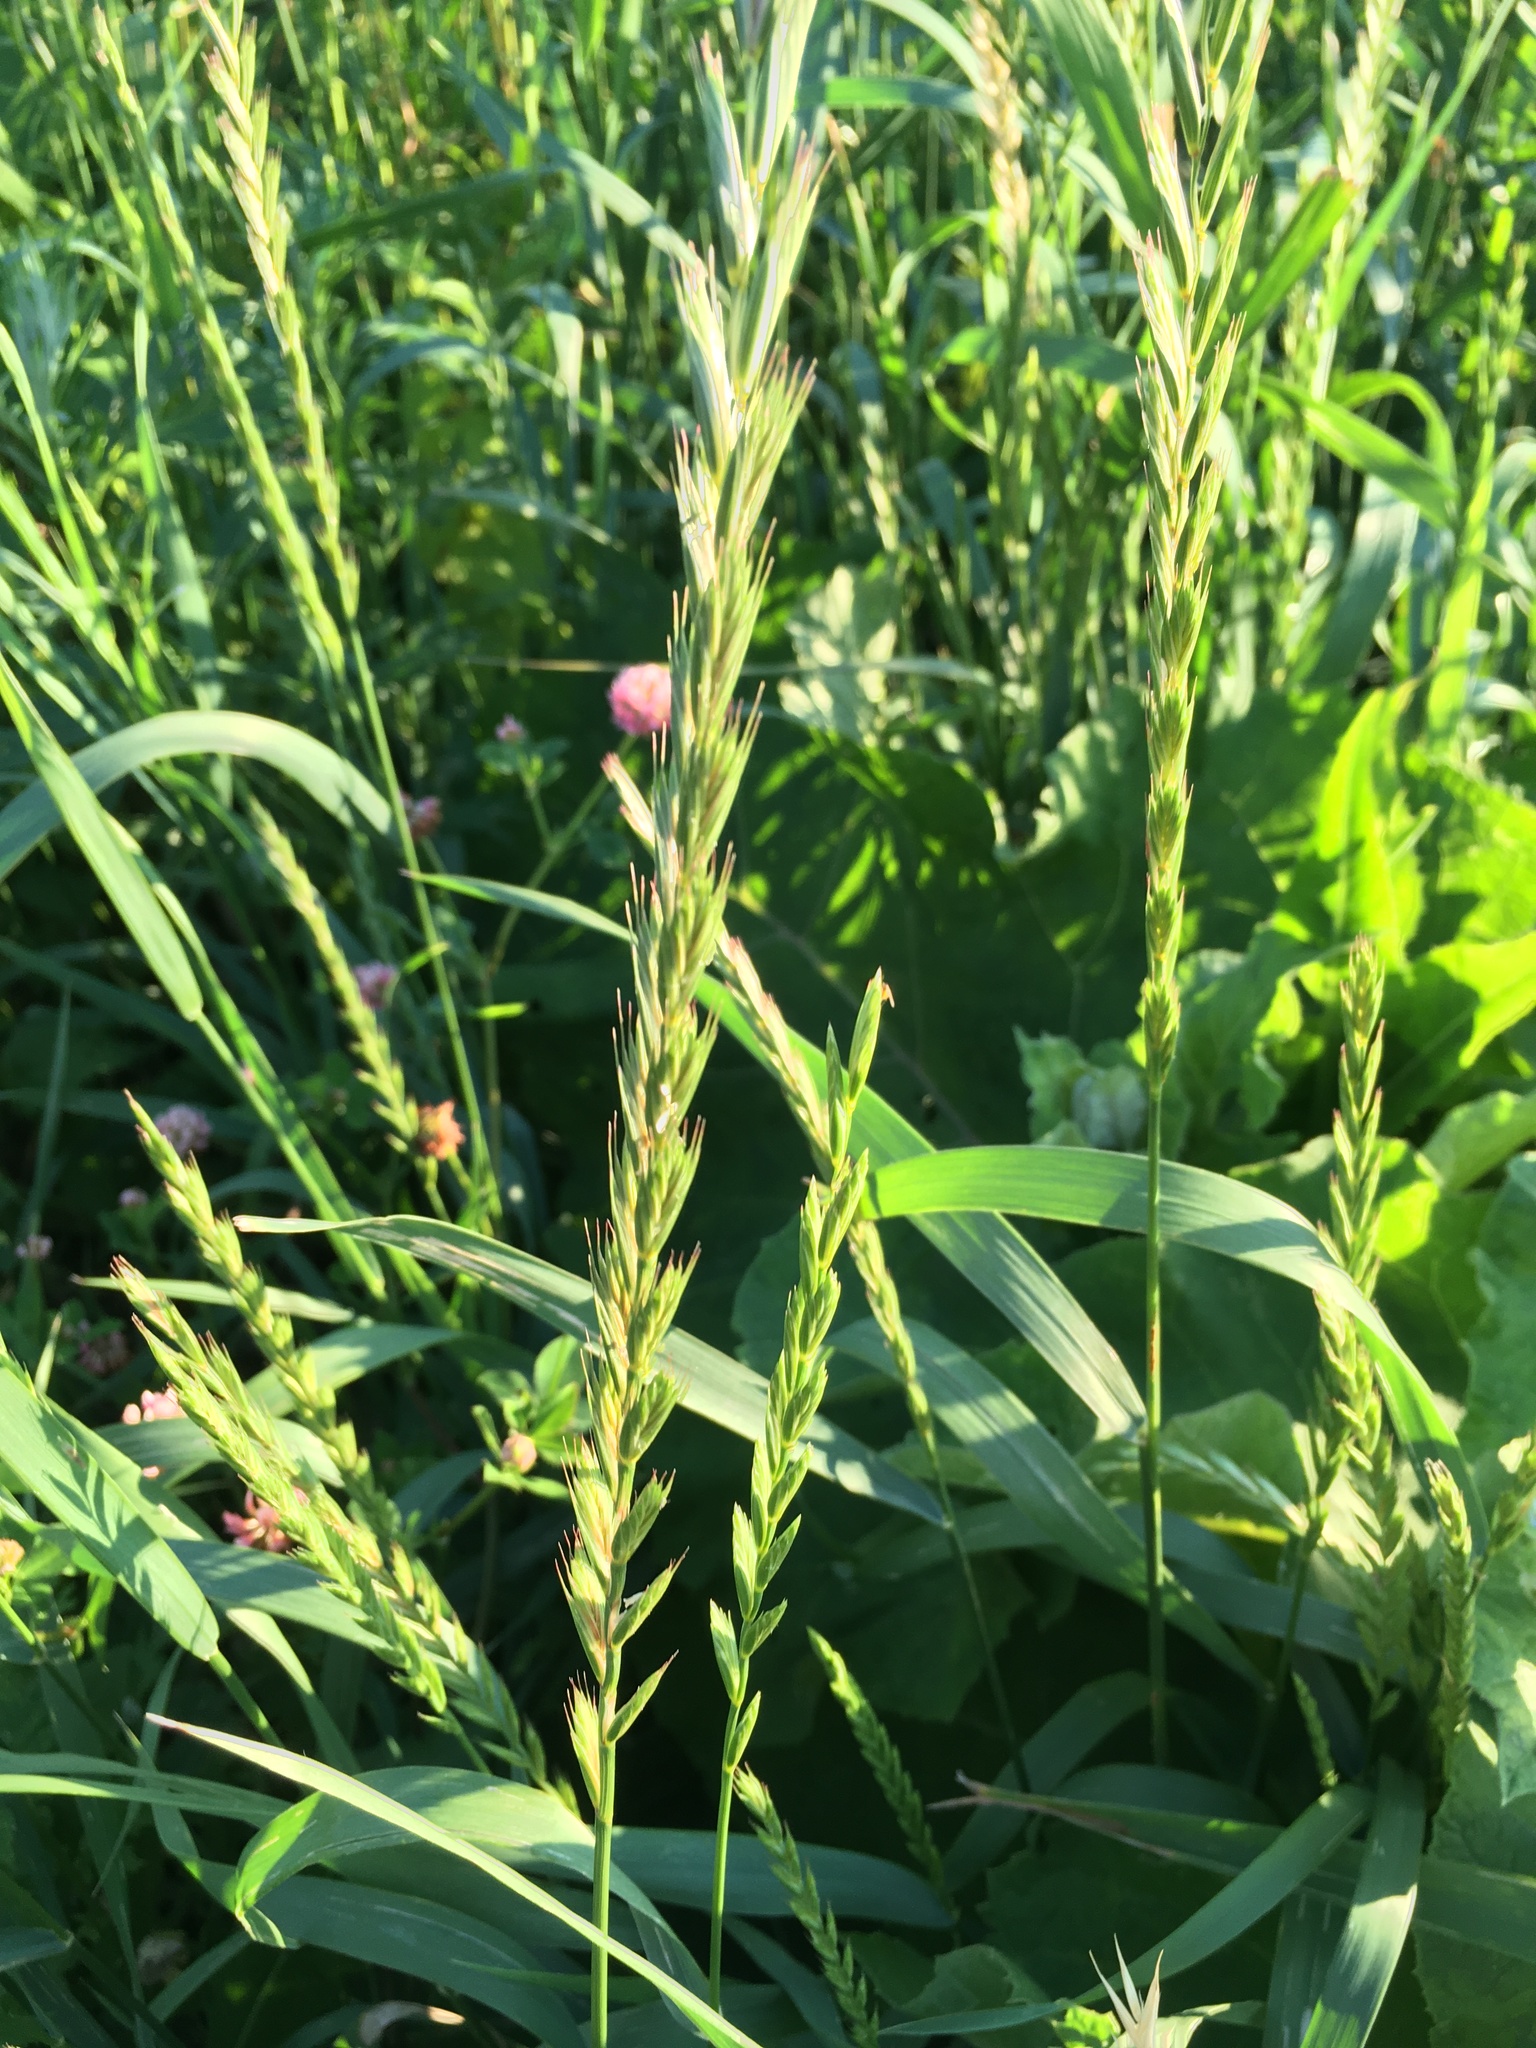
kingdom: Plantae
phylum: Tracheophyta
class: Liliopsida
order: Poales
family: Poaceae
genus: Elymus
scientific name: Elymus repens
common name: Quackgrass
